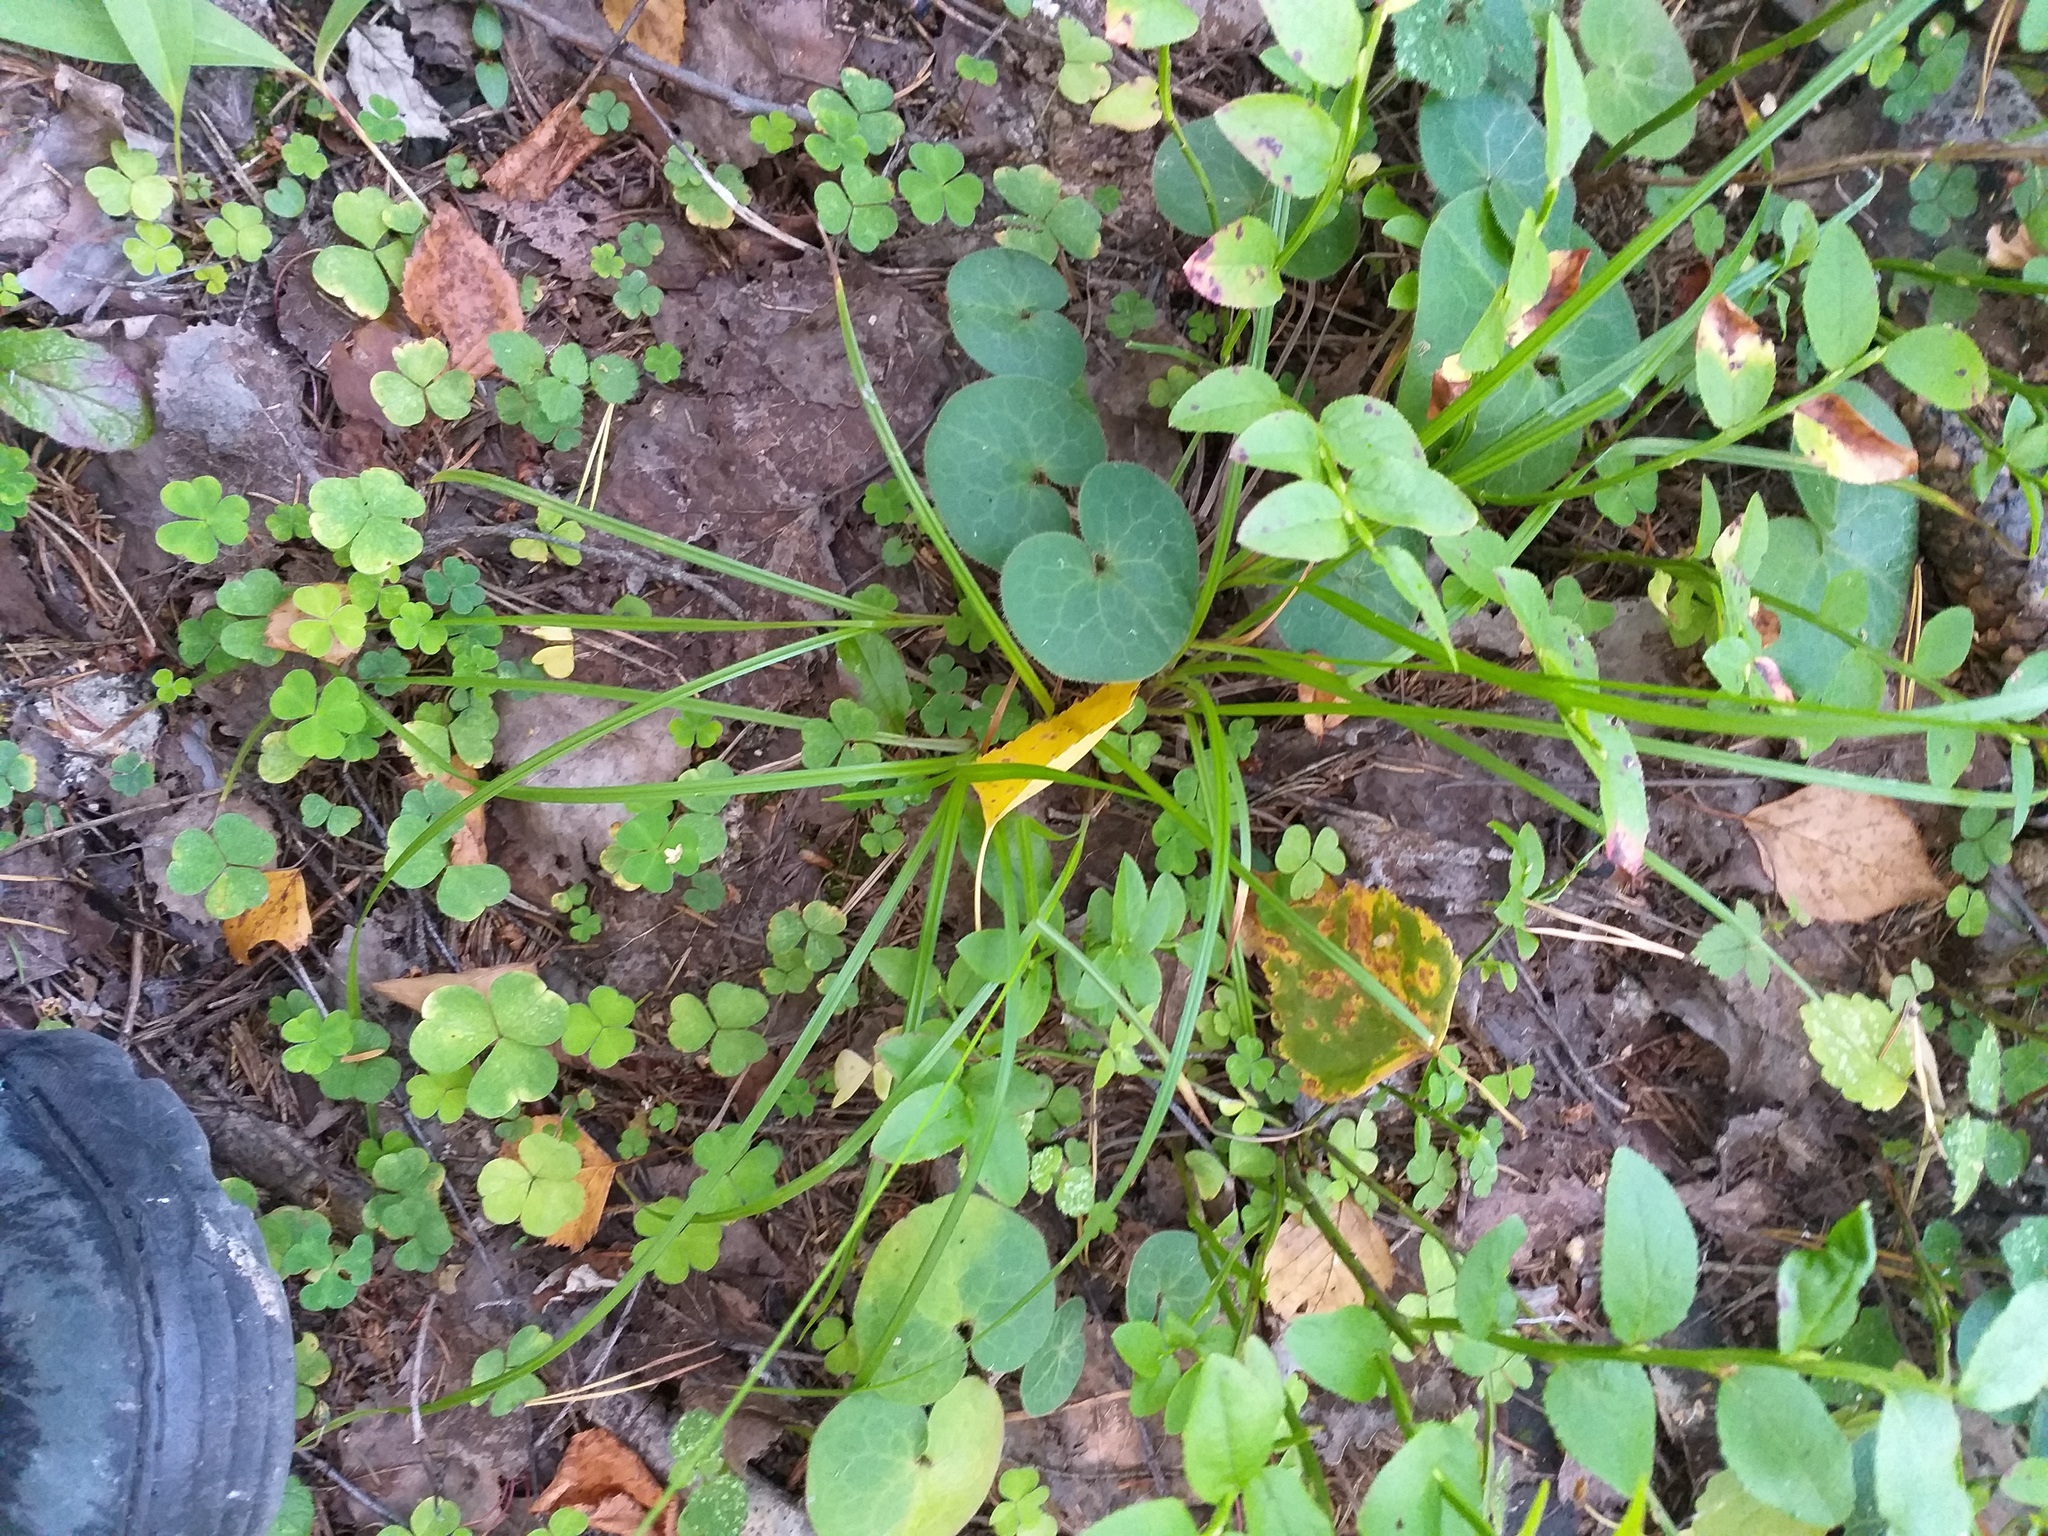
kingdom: Plantae
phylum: Tracheophyta
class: Liliopsida
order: Poales
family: Cyperaceae
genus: Carex
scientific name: Carex pallescens
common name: Pale sedge
